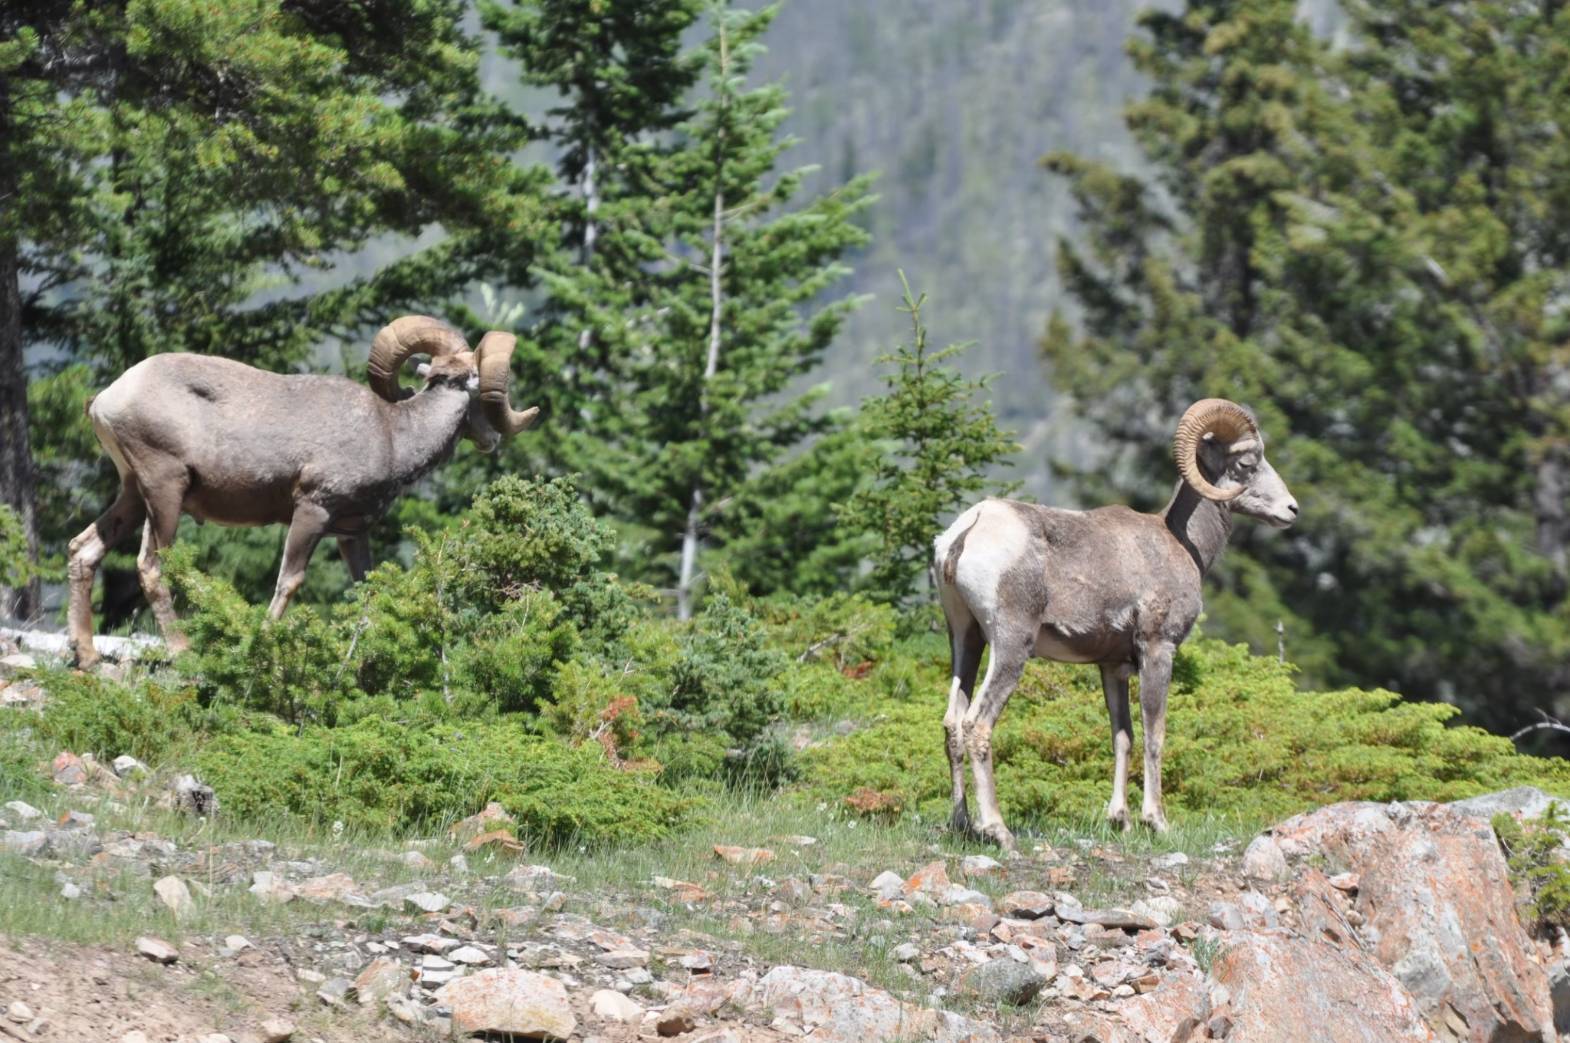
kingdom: Animalia
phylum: Chordata
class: Mammalia
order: Artiodactyla
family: Bovidae
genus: Ovis
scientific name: Ovis canadensis
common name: Bighorn sheep
